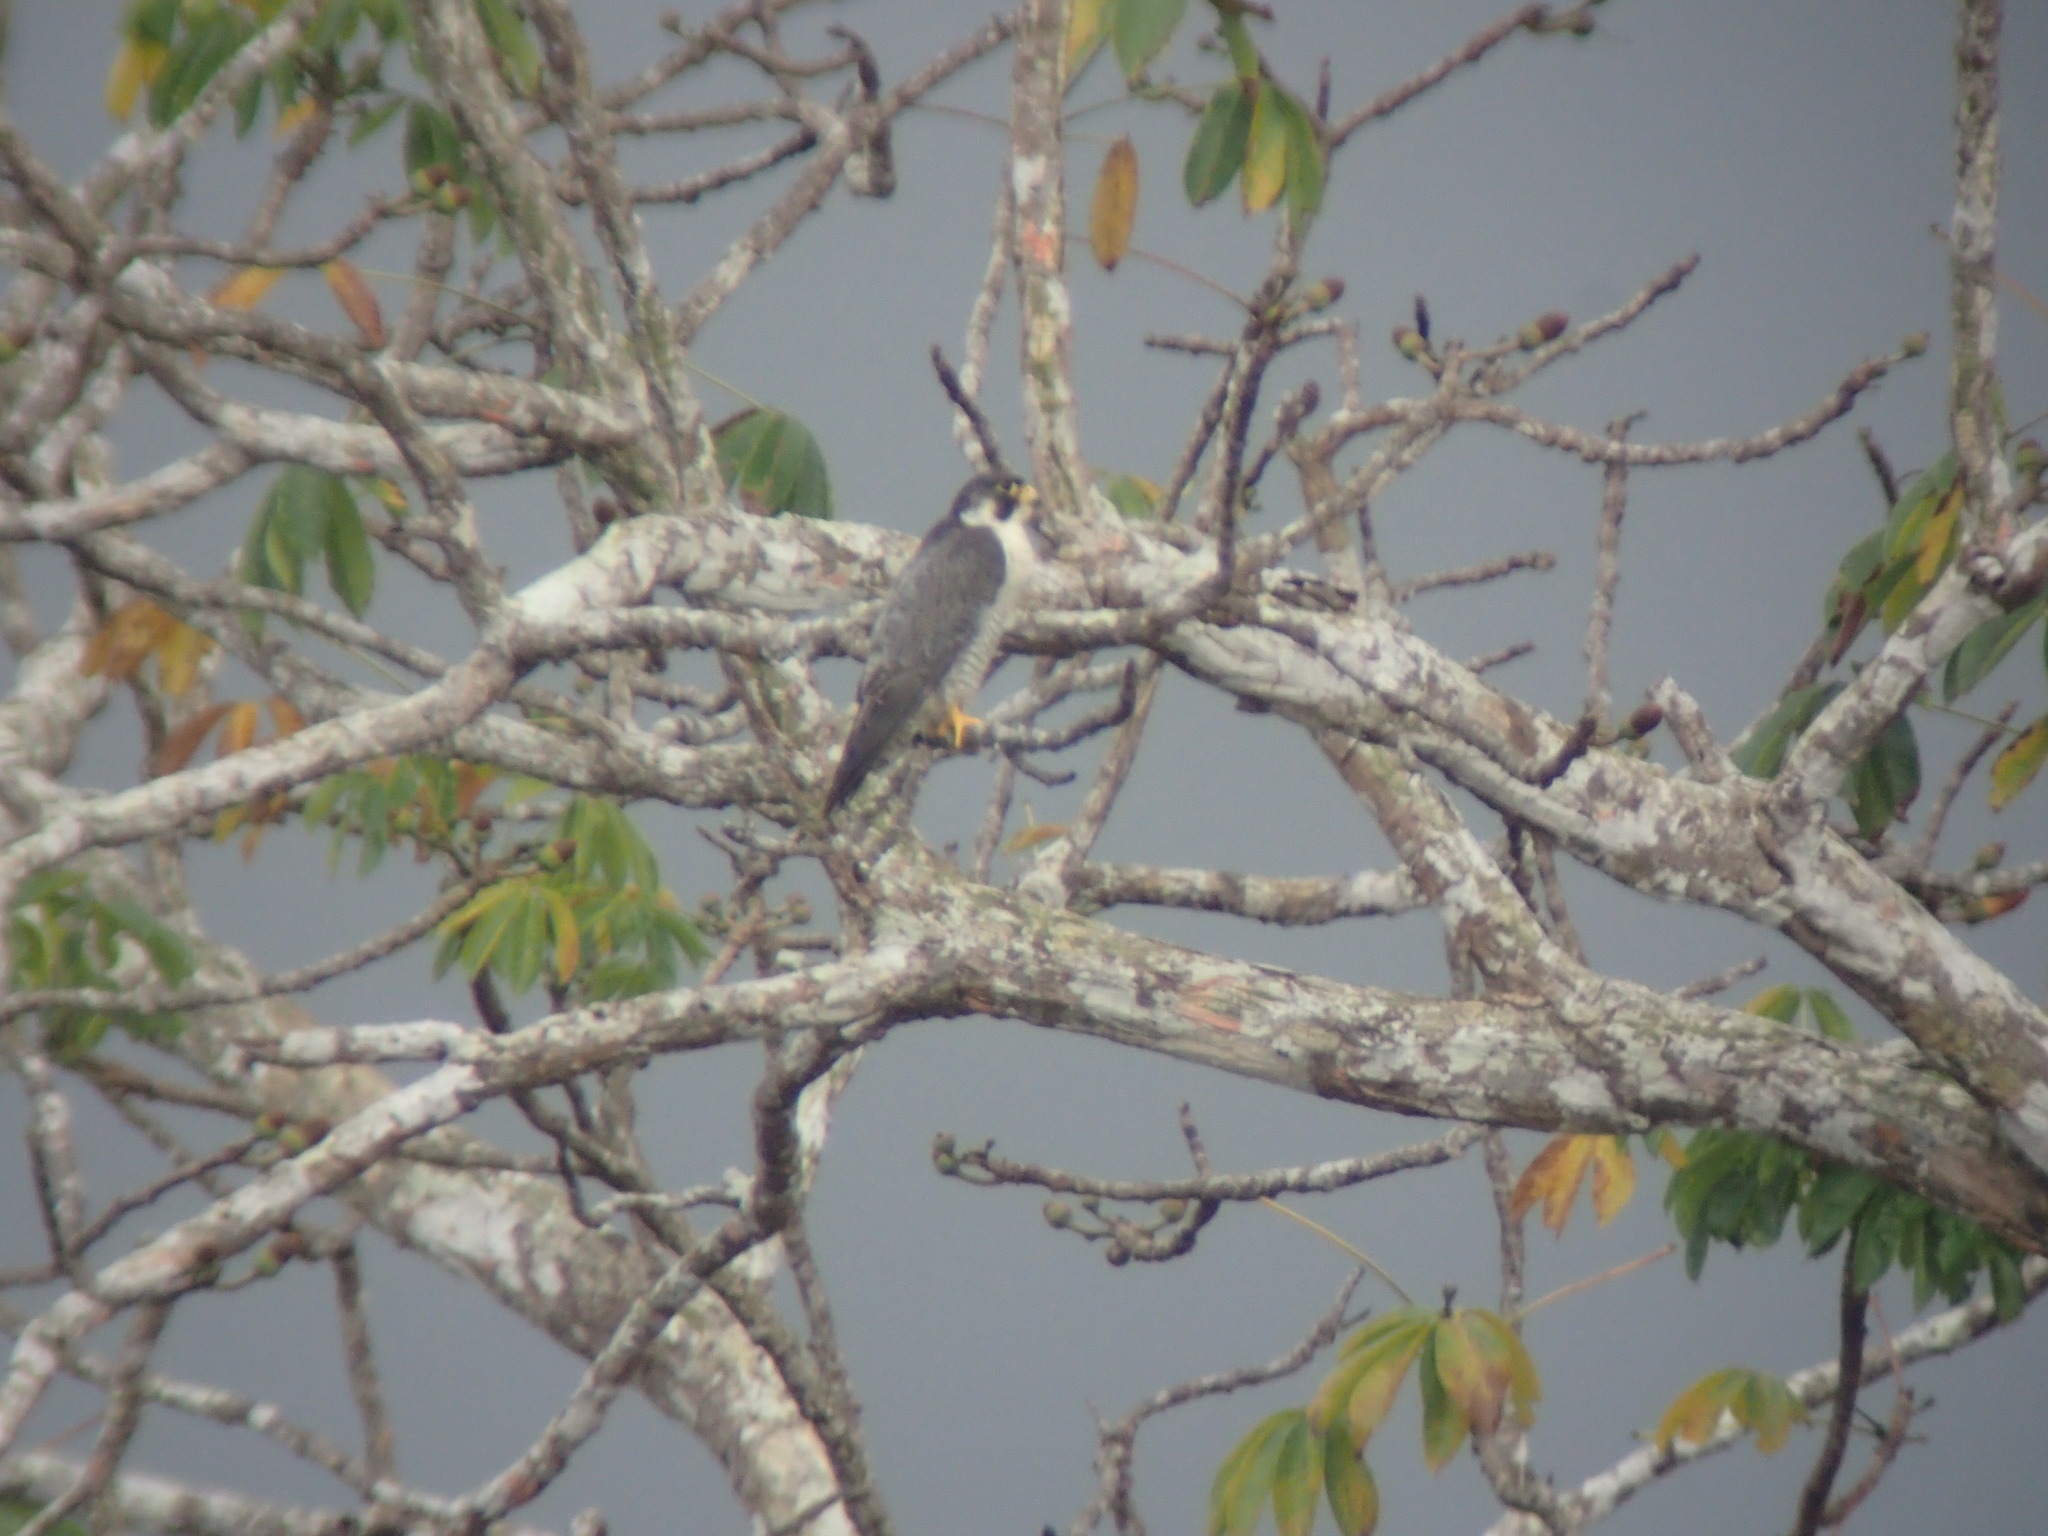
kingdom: Animalia
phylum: Chordata
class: Aves
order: Falconiformes
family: Falconidae
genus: Falco
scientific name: Falco peregrinus
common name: Peregrine falcon
